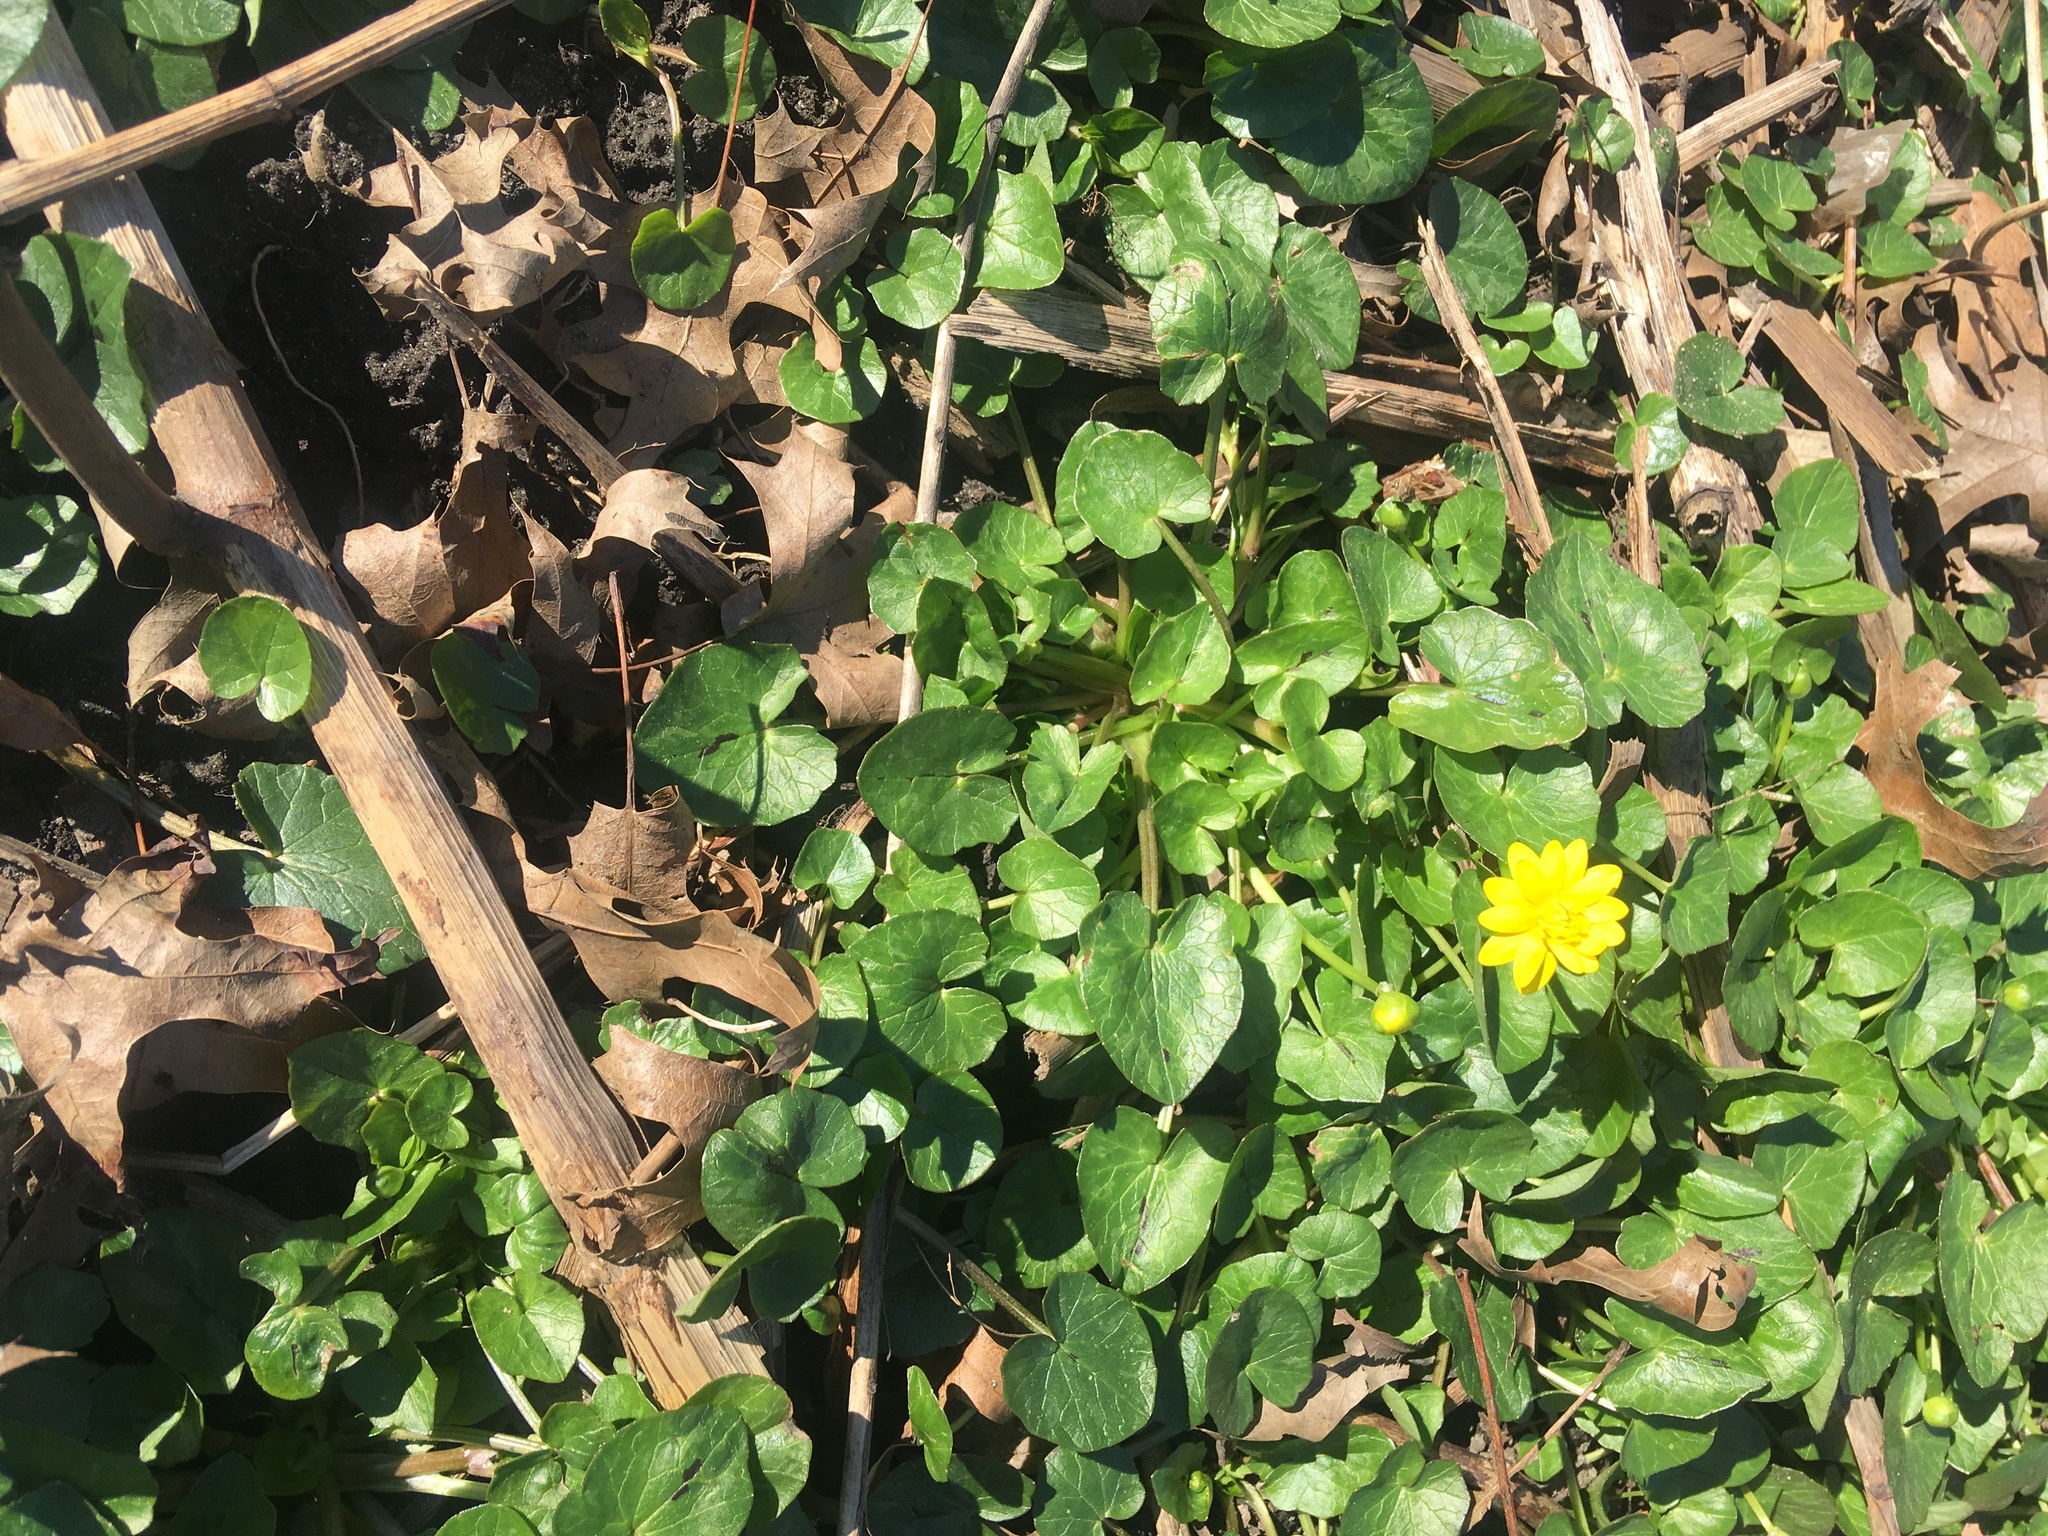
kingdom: Plantae
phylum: Tracheophyta
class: Magnoliopsida
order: Ranunculales
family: Ranunculaceae
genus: Ficaria
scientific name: Ficaria verna
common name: Lesser celandine
